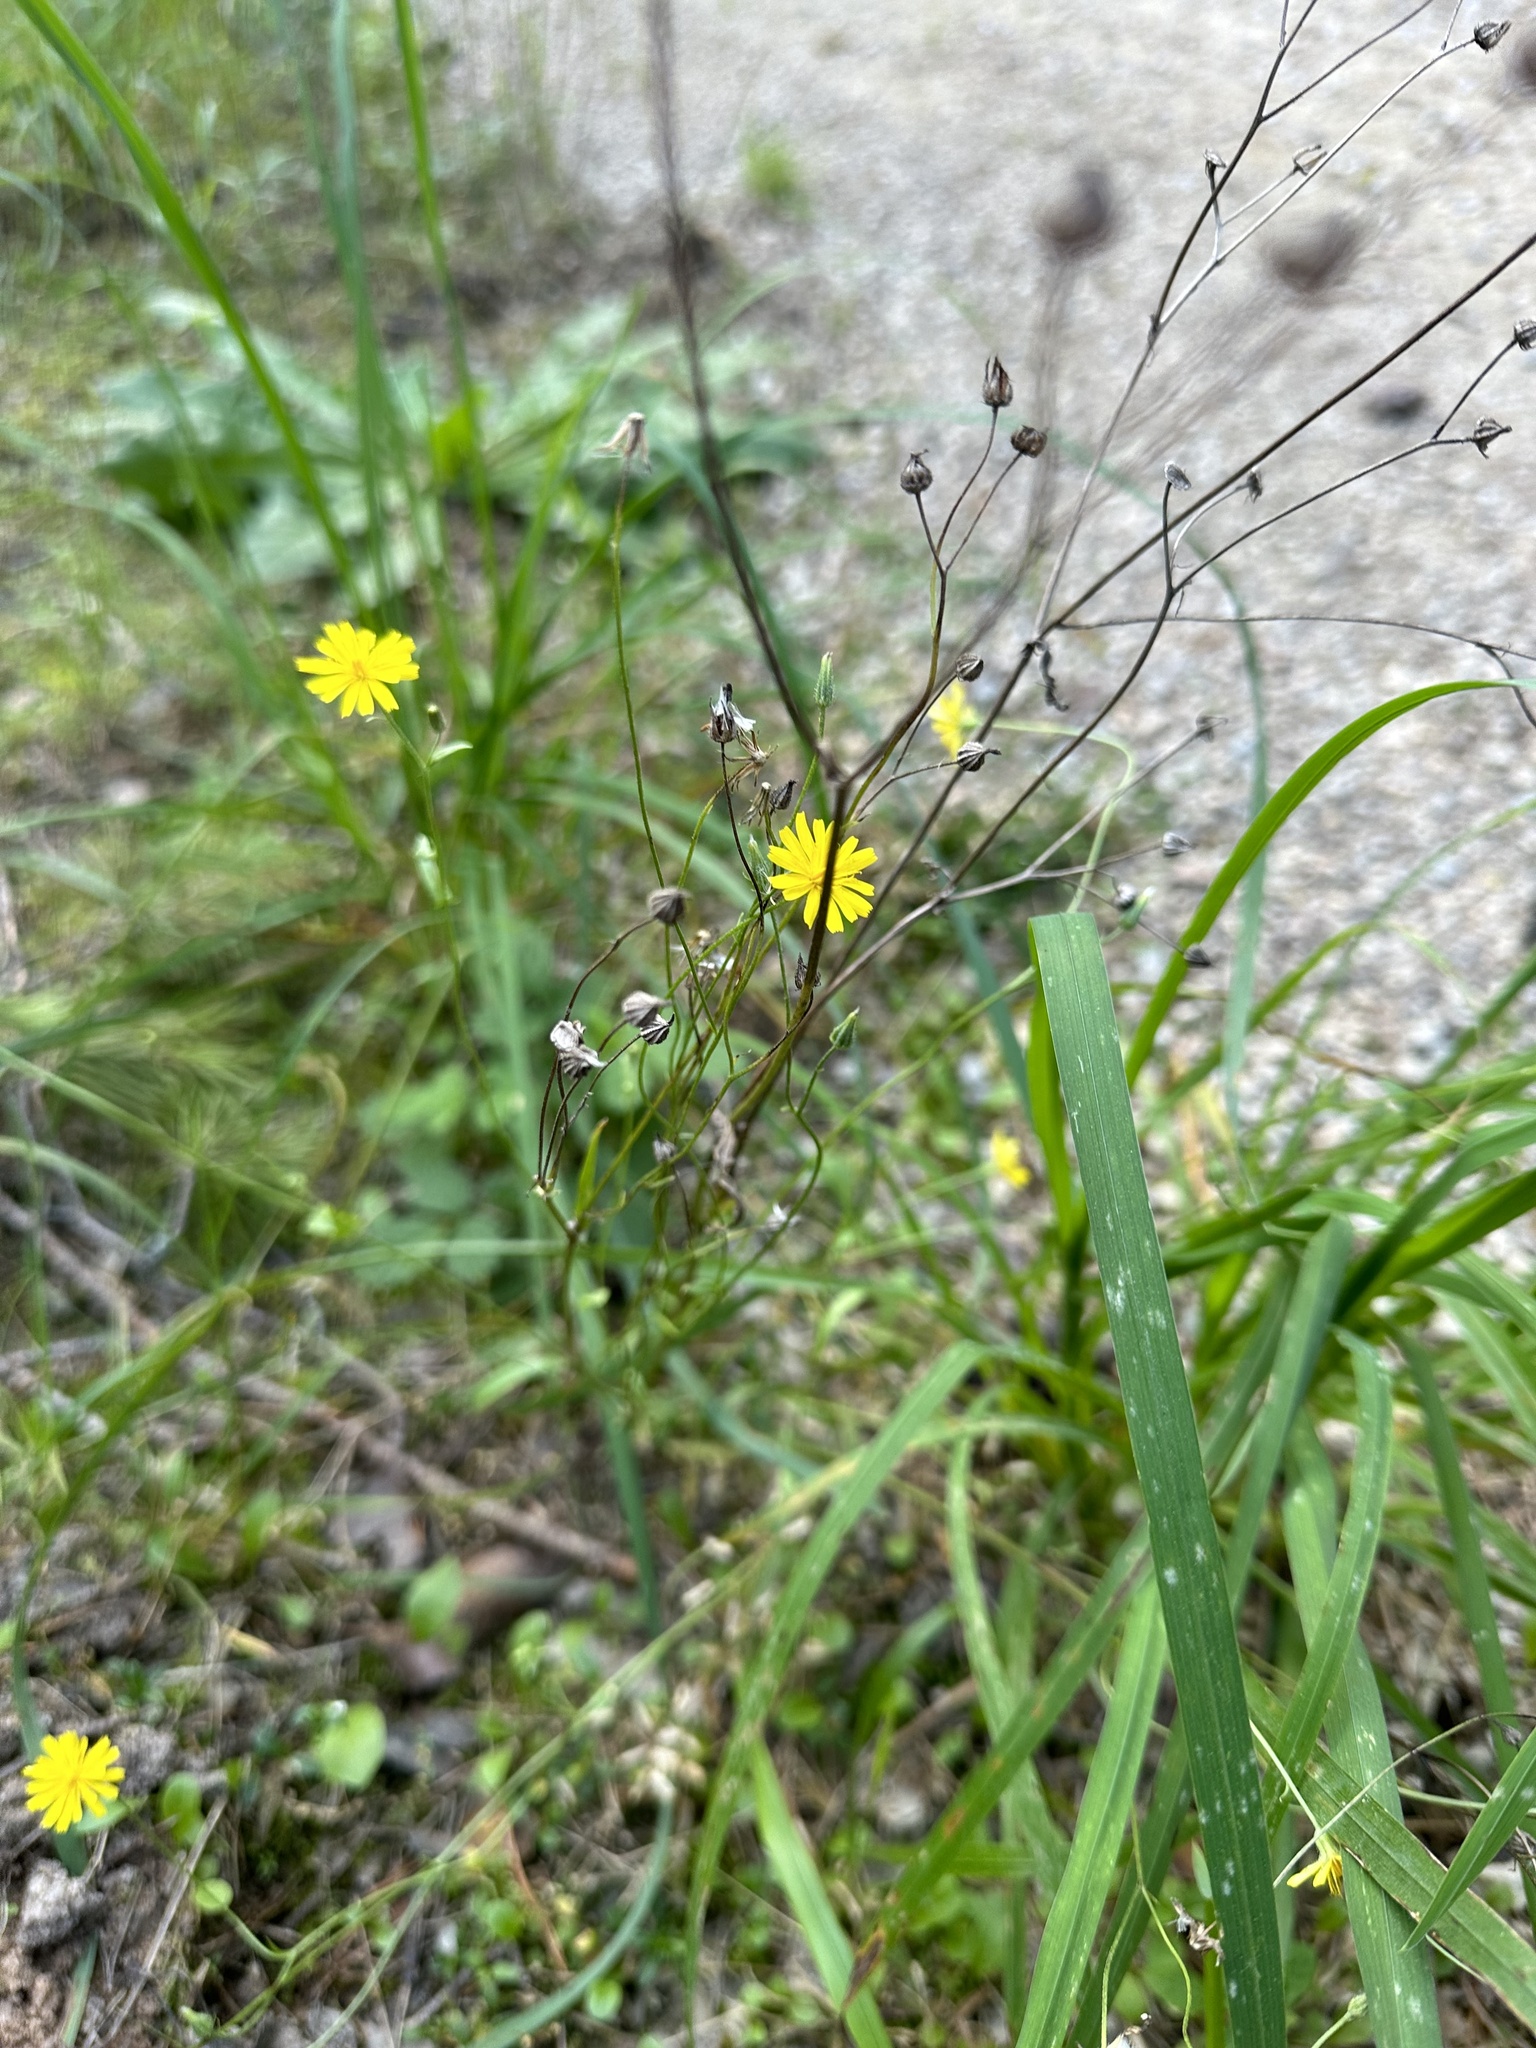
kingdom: Plantae
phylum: Tracheophyta
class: Magnoliopsida
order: Asterales
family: Asteraceae
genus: Crepis
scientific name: Crepis capillaris
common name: Smooth hawksbeard
